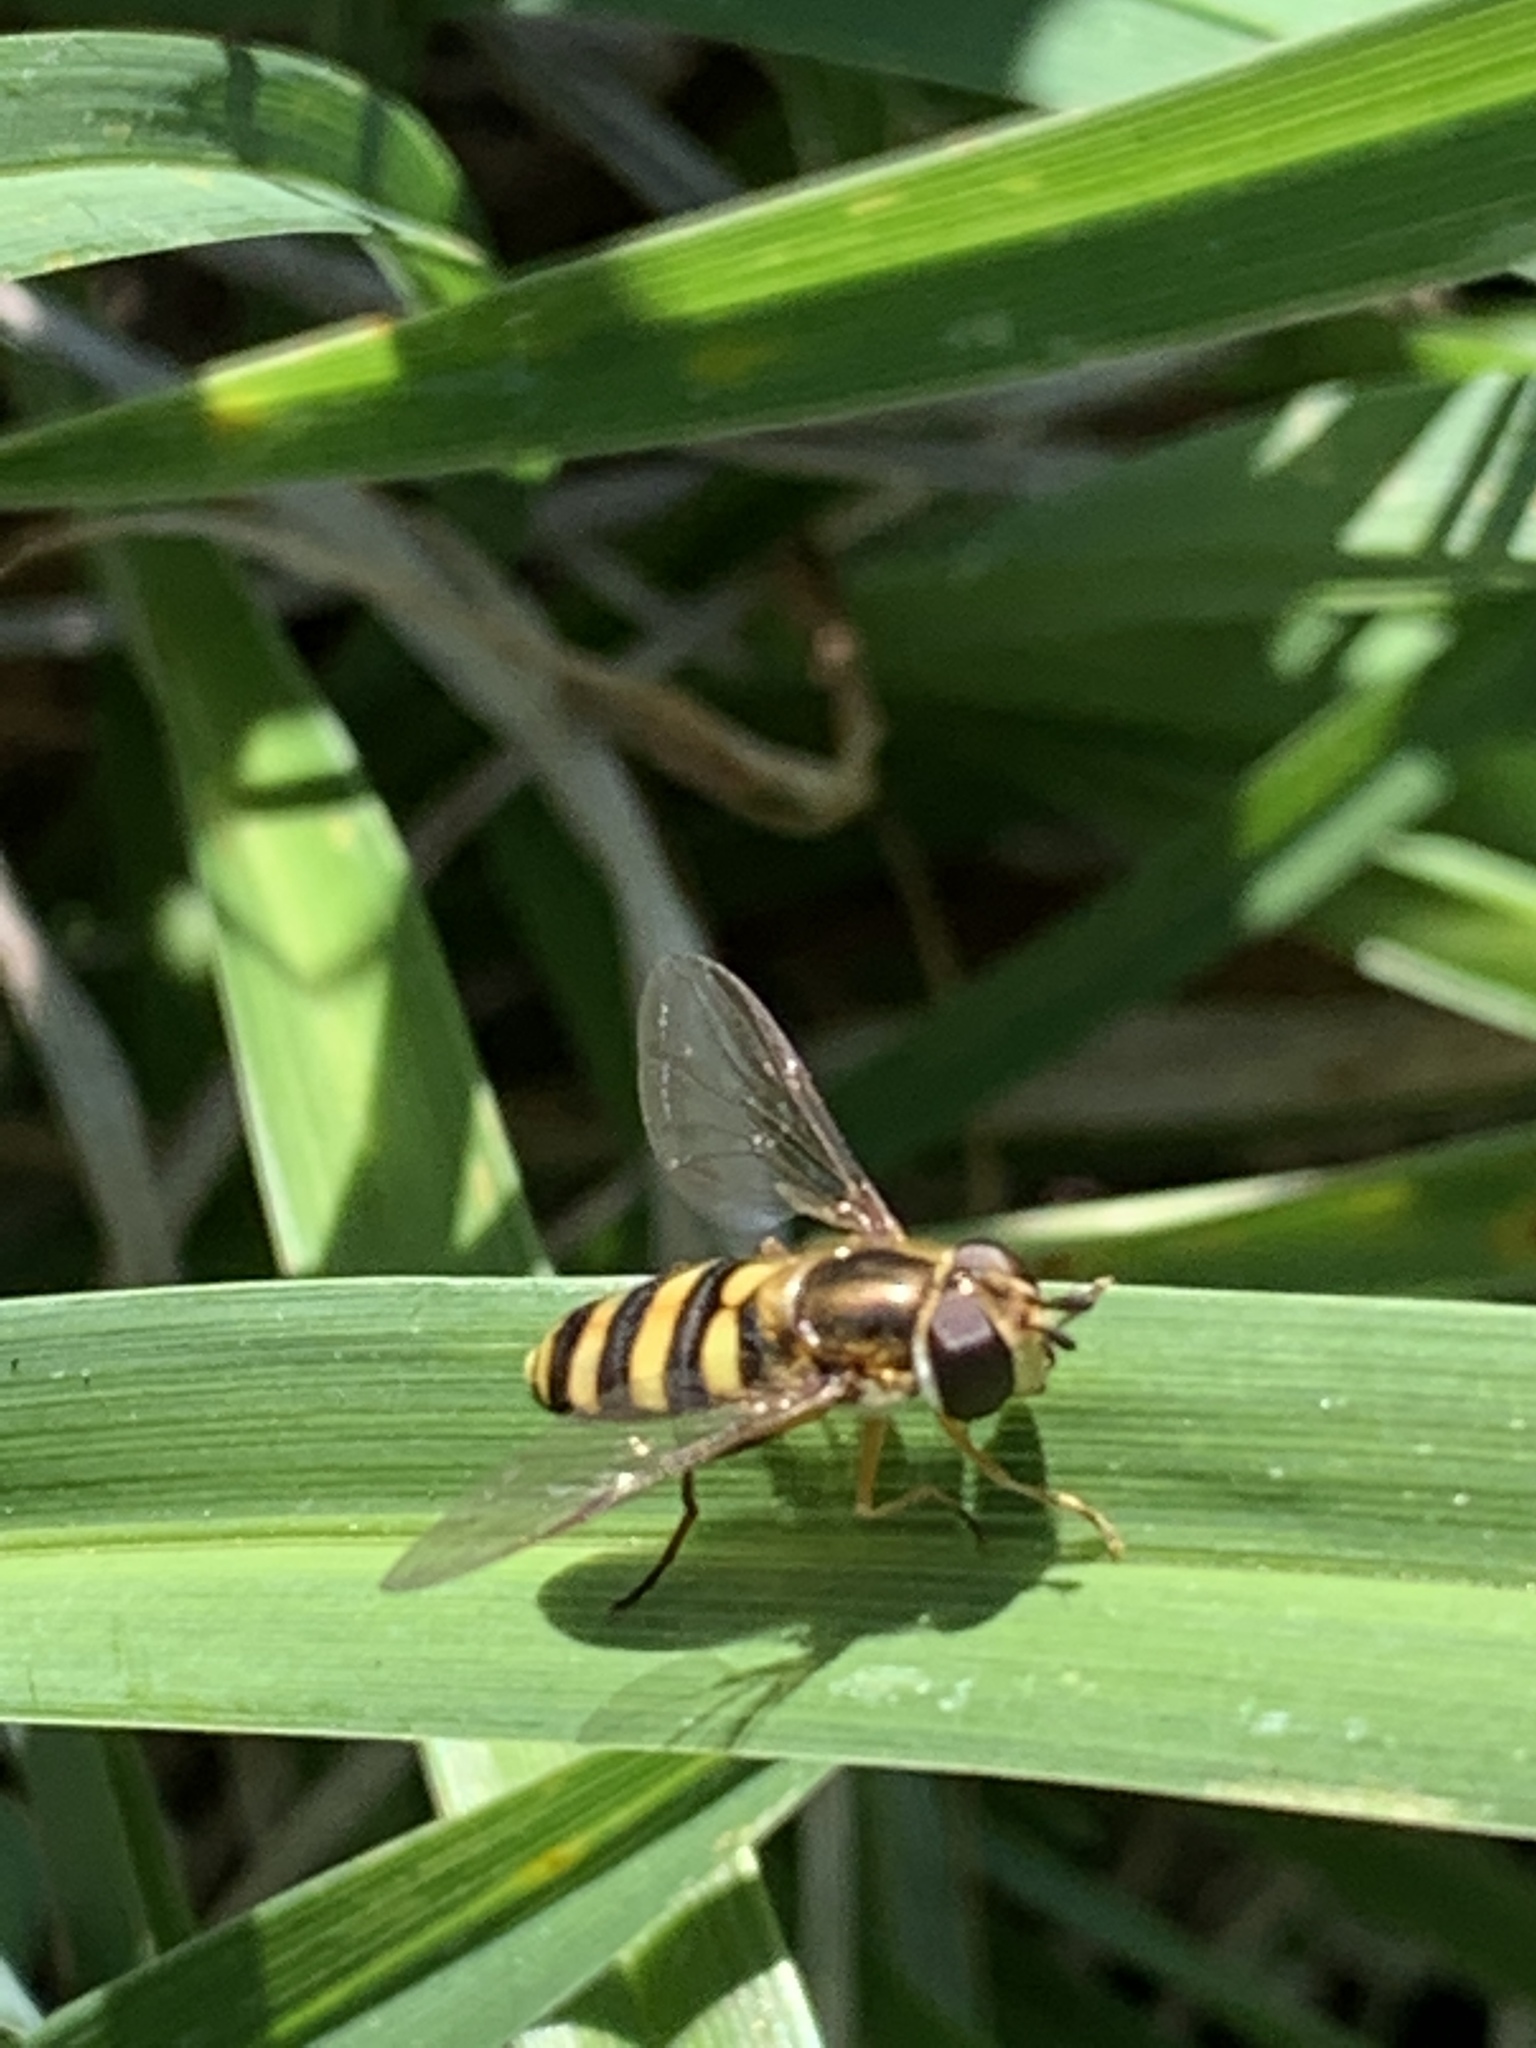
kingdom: Animalia
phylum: Arthropoda
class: Insecta
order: Diptera
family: Syrphidae
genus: Eupeodes
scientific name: Eupeodes
